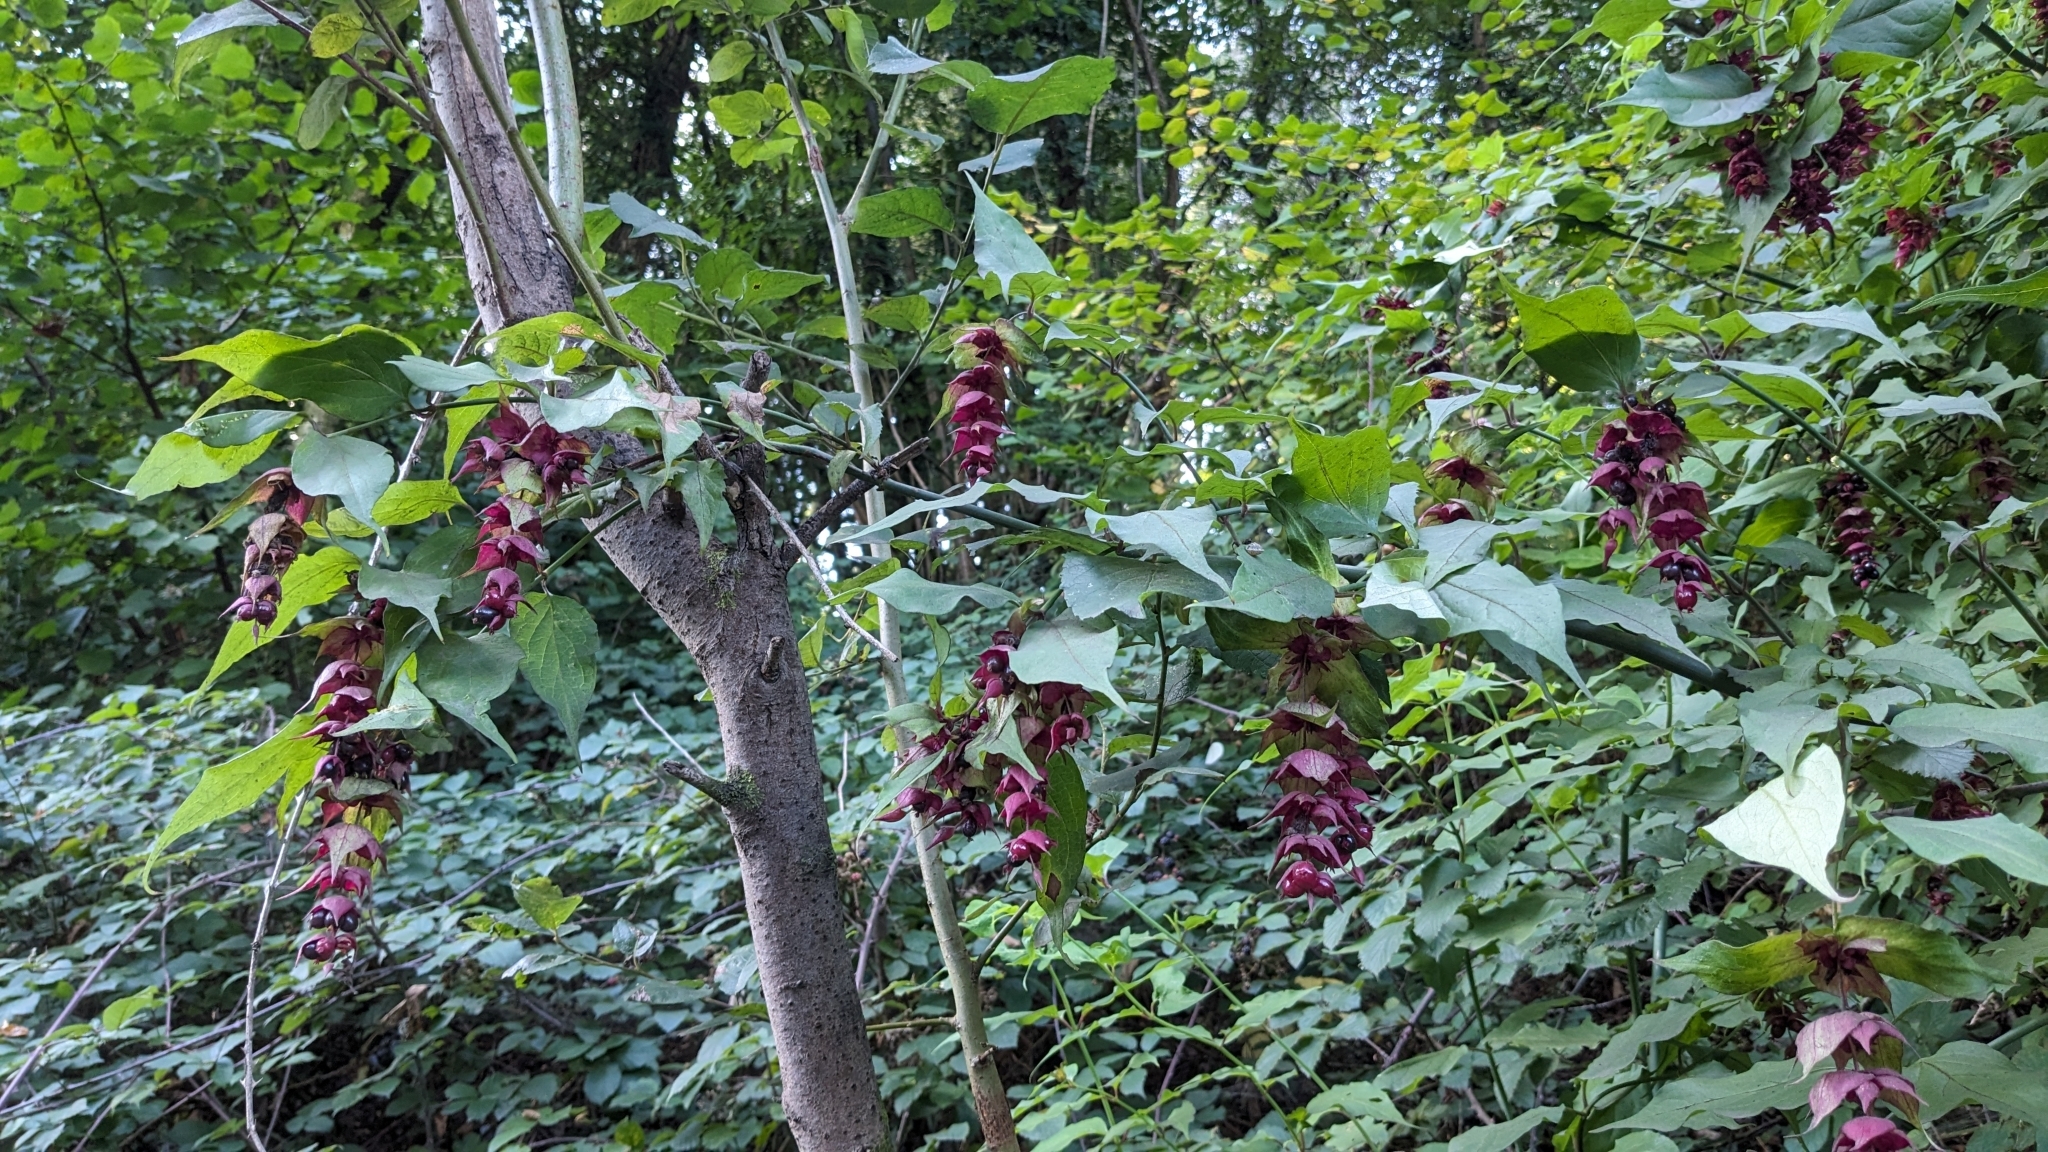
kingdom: Plantae
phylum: Tracheophyta
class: Magnoliopsida
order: Dipsacales
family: Caprifoliaceae
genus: Leycesteria
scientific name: Leycesteria formosa
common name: Himalayan honeysuckle
